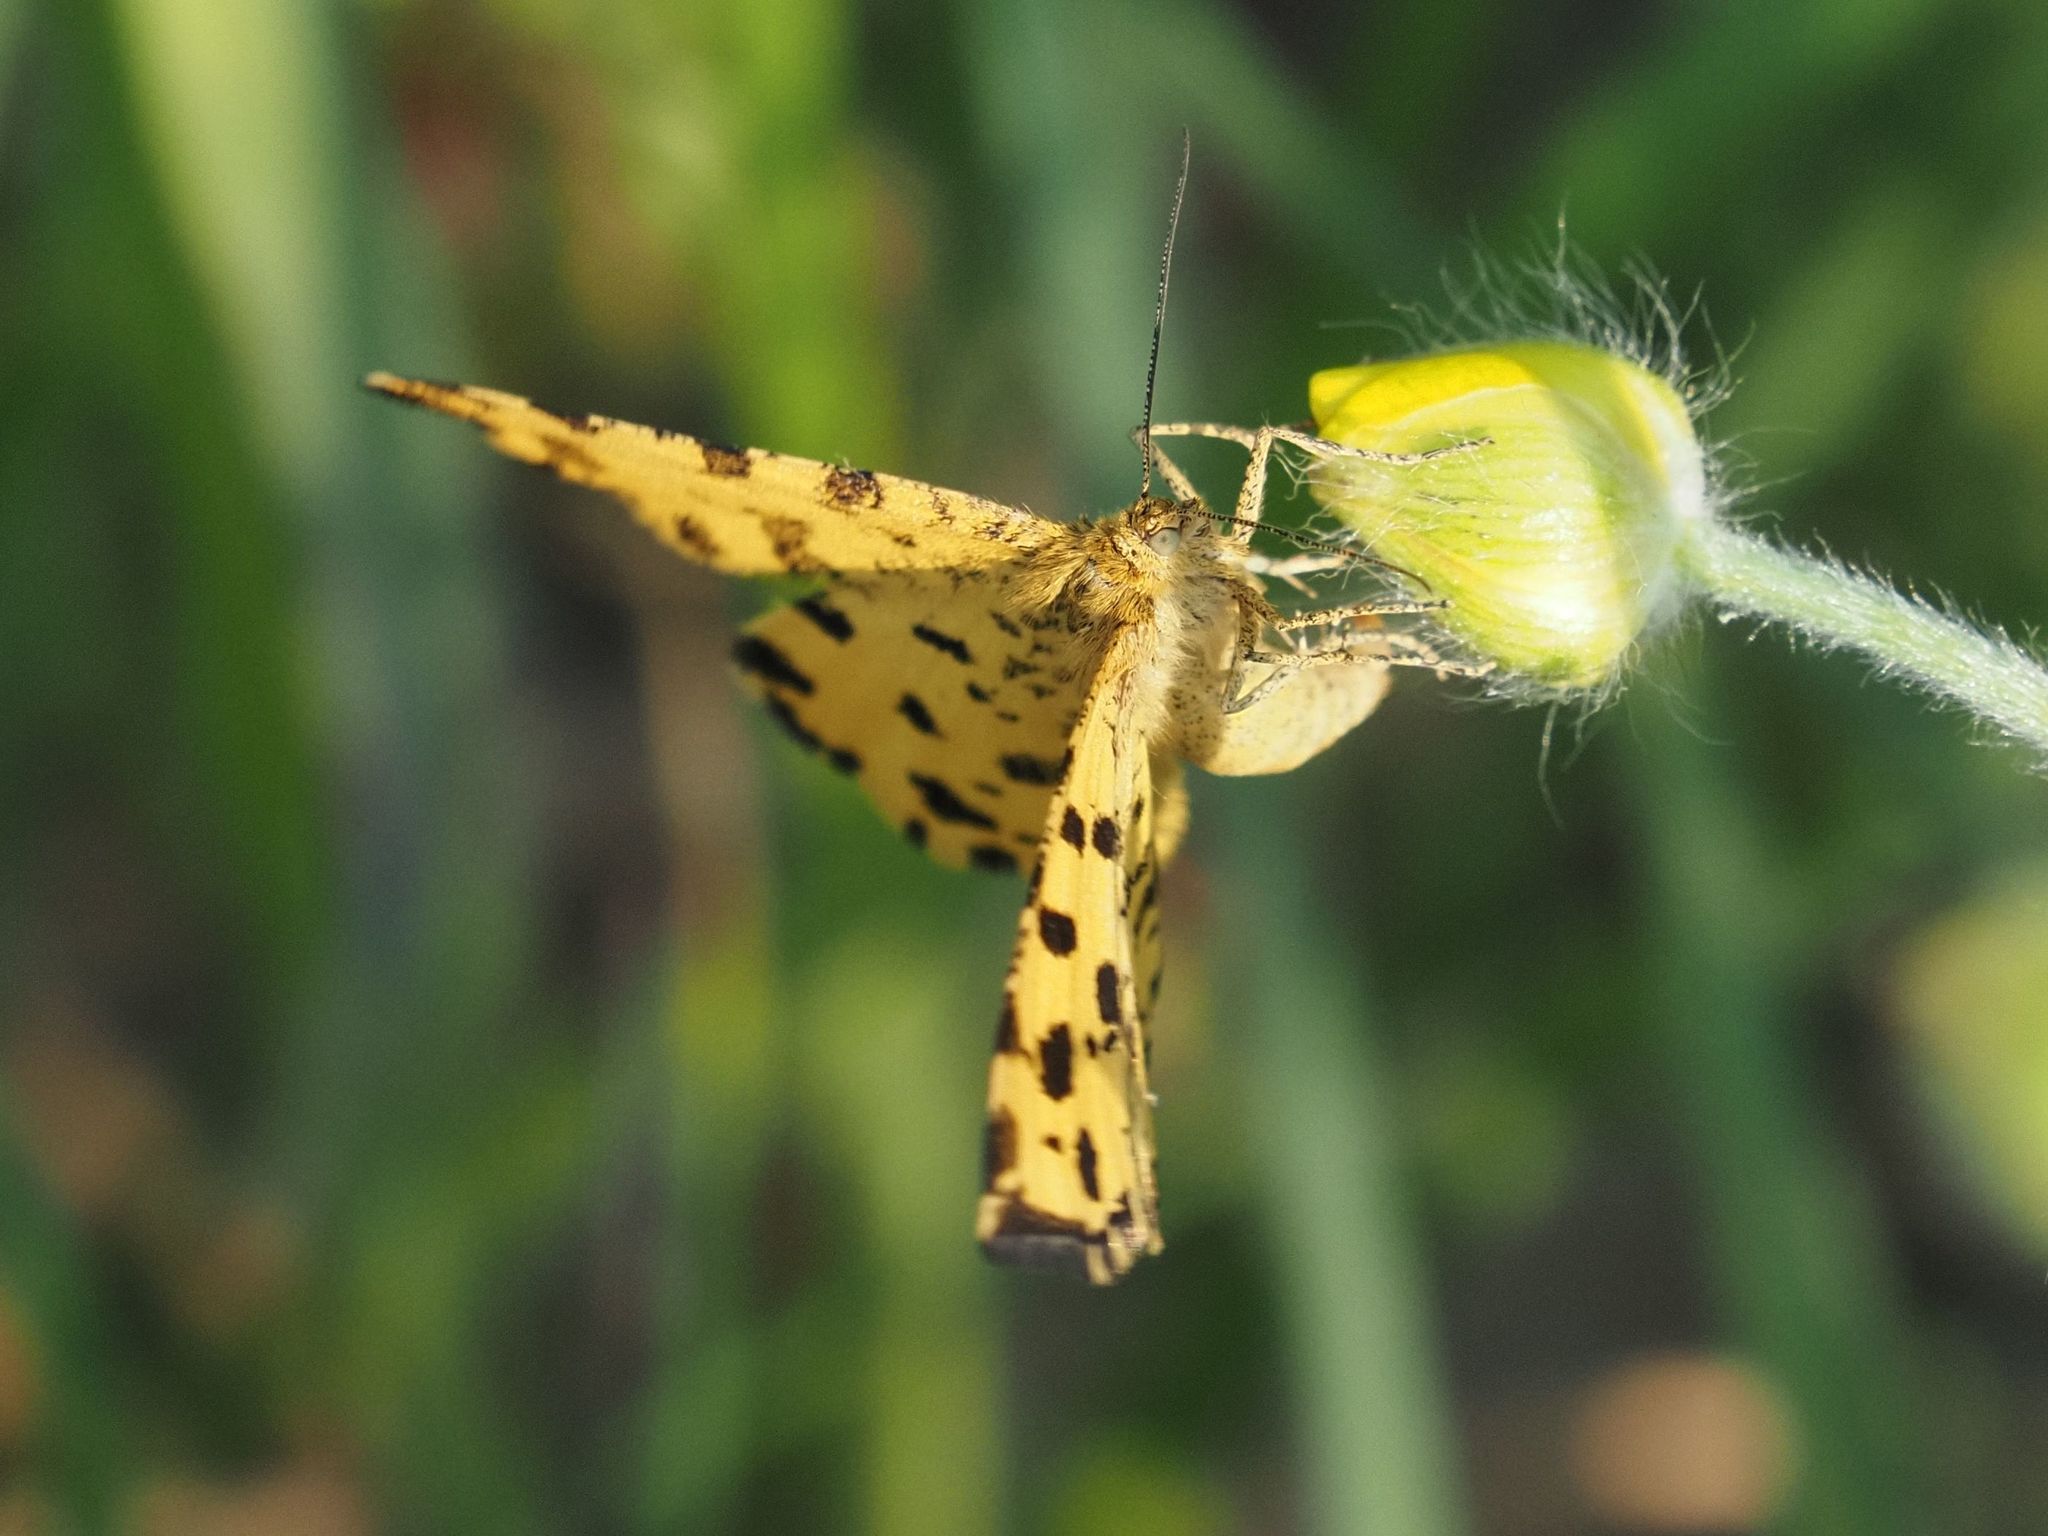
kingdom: Animalia
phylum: Arthropoda
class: Insecta
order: Lepidoptera
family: Geometridae
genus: Pseudopanthera
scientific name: Pseudopanthera macularia
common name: Speckled yellow
